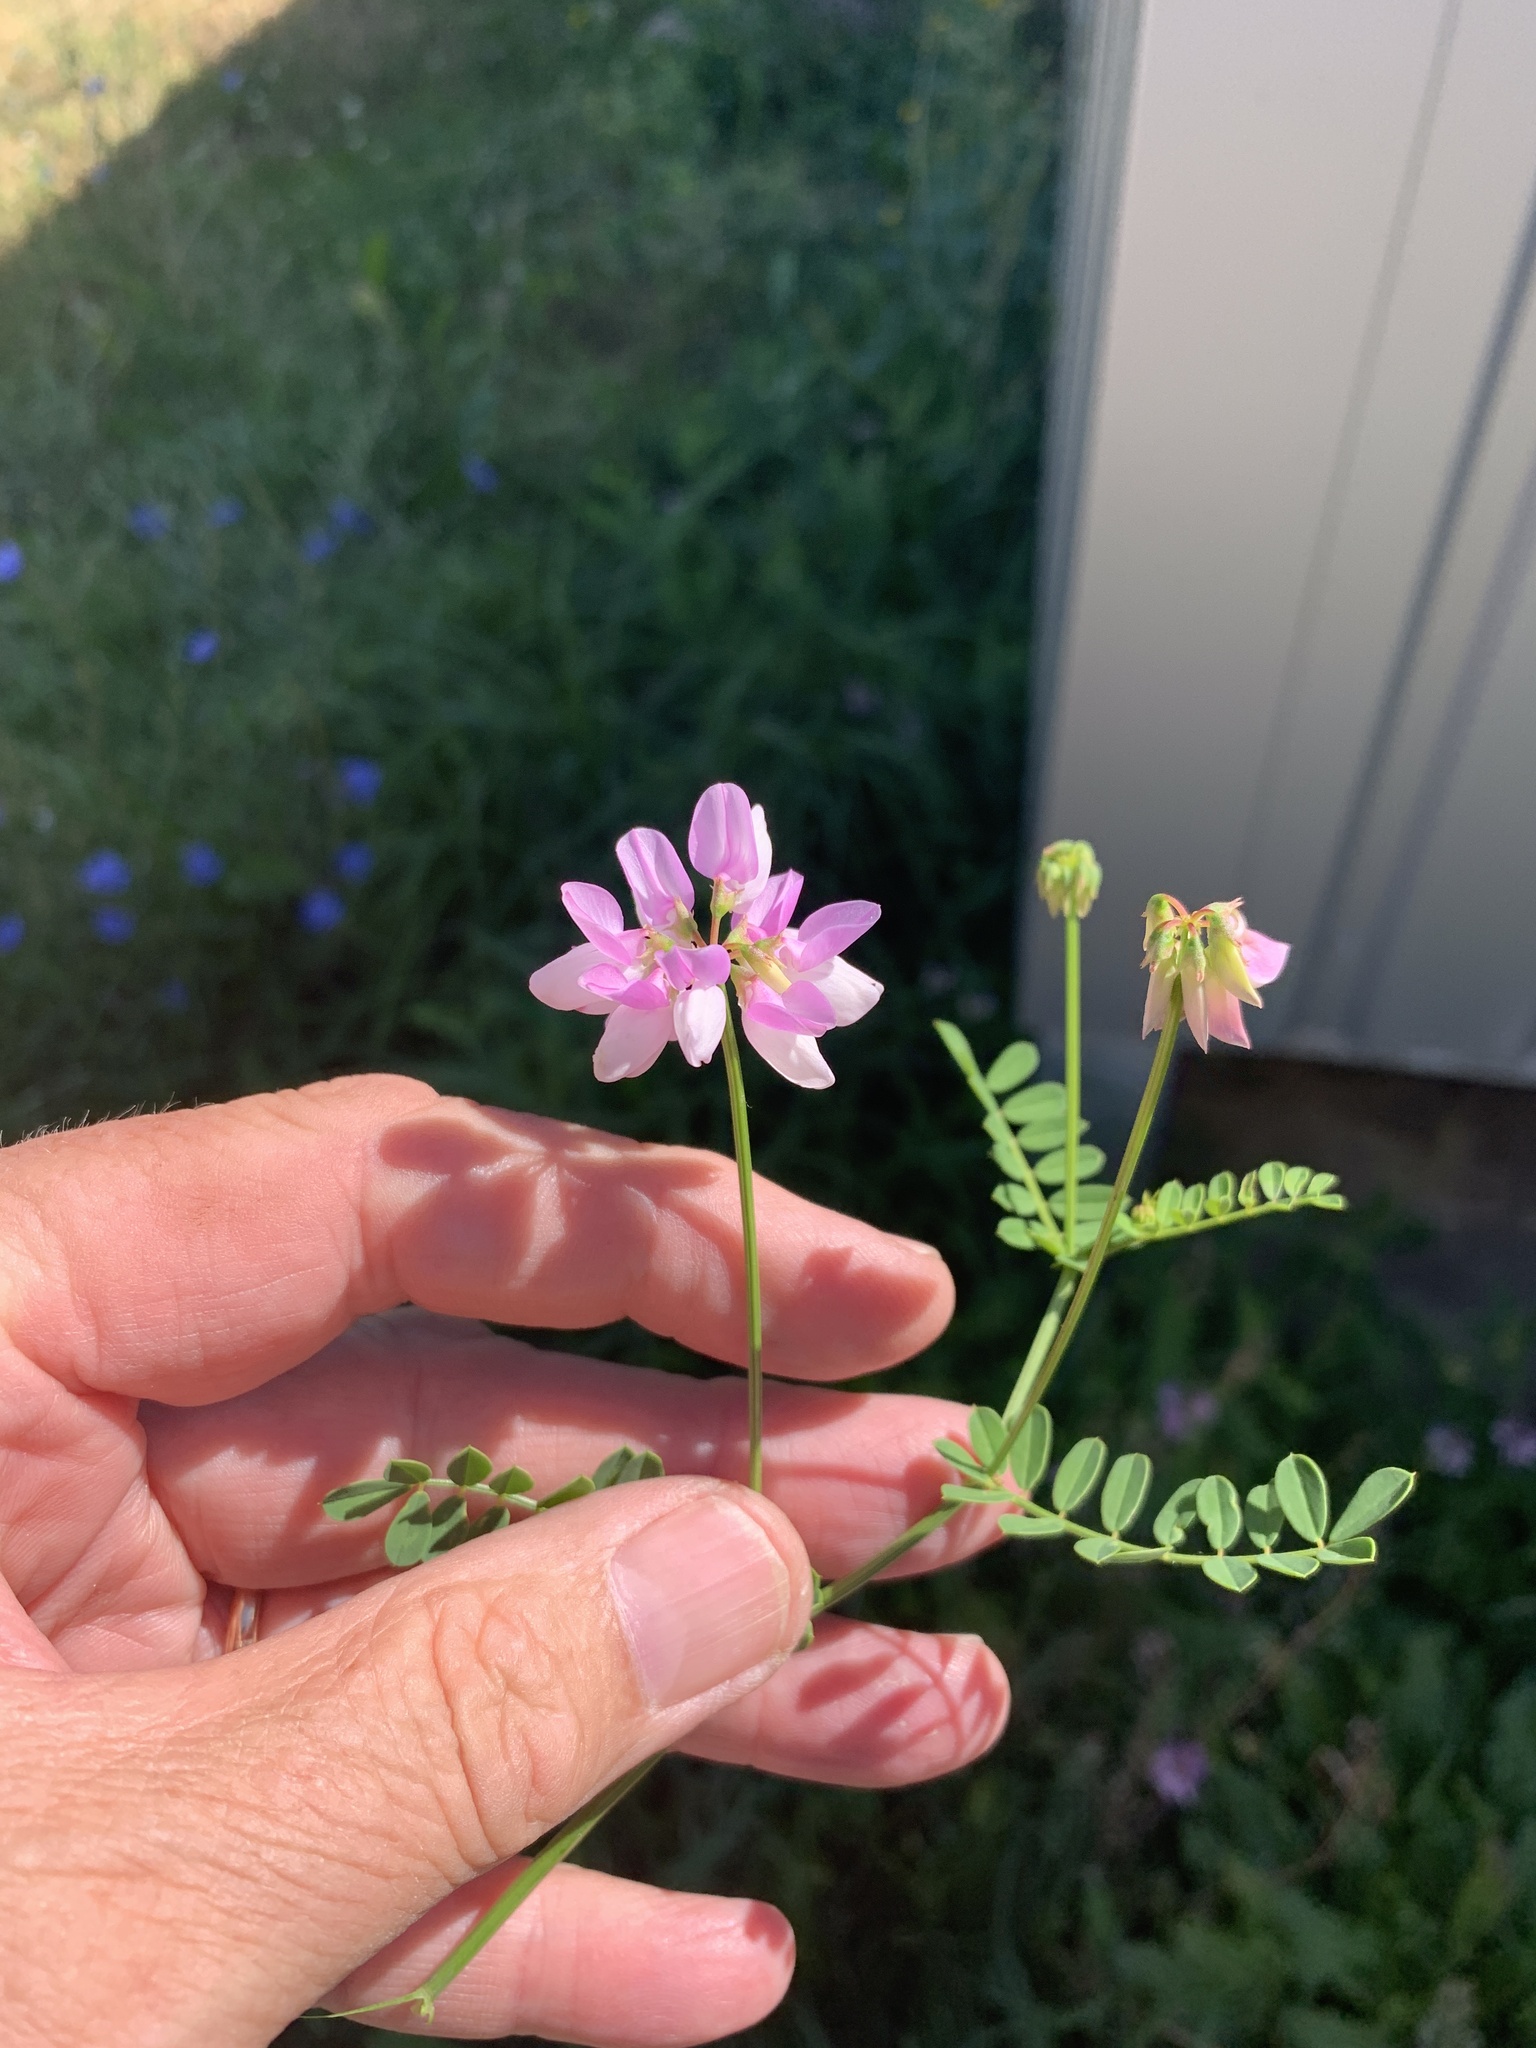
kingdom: Plantae
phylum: Tracheophyta
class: Magnoliopsida
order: Fabales
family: Fabaceae
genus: Coronilla
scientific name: Coronilla varia
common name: Crownvetch
